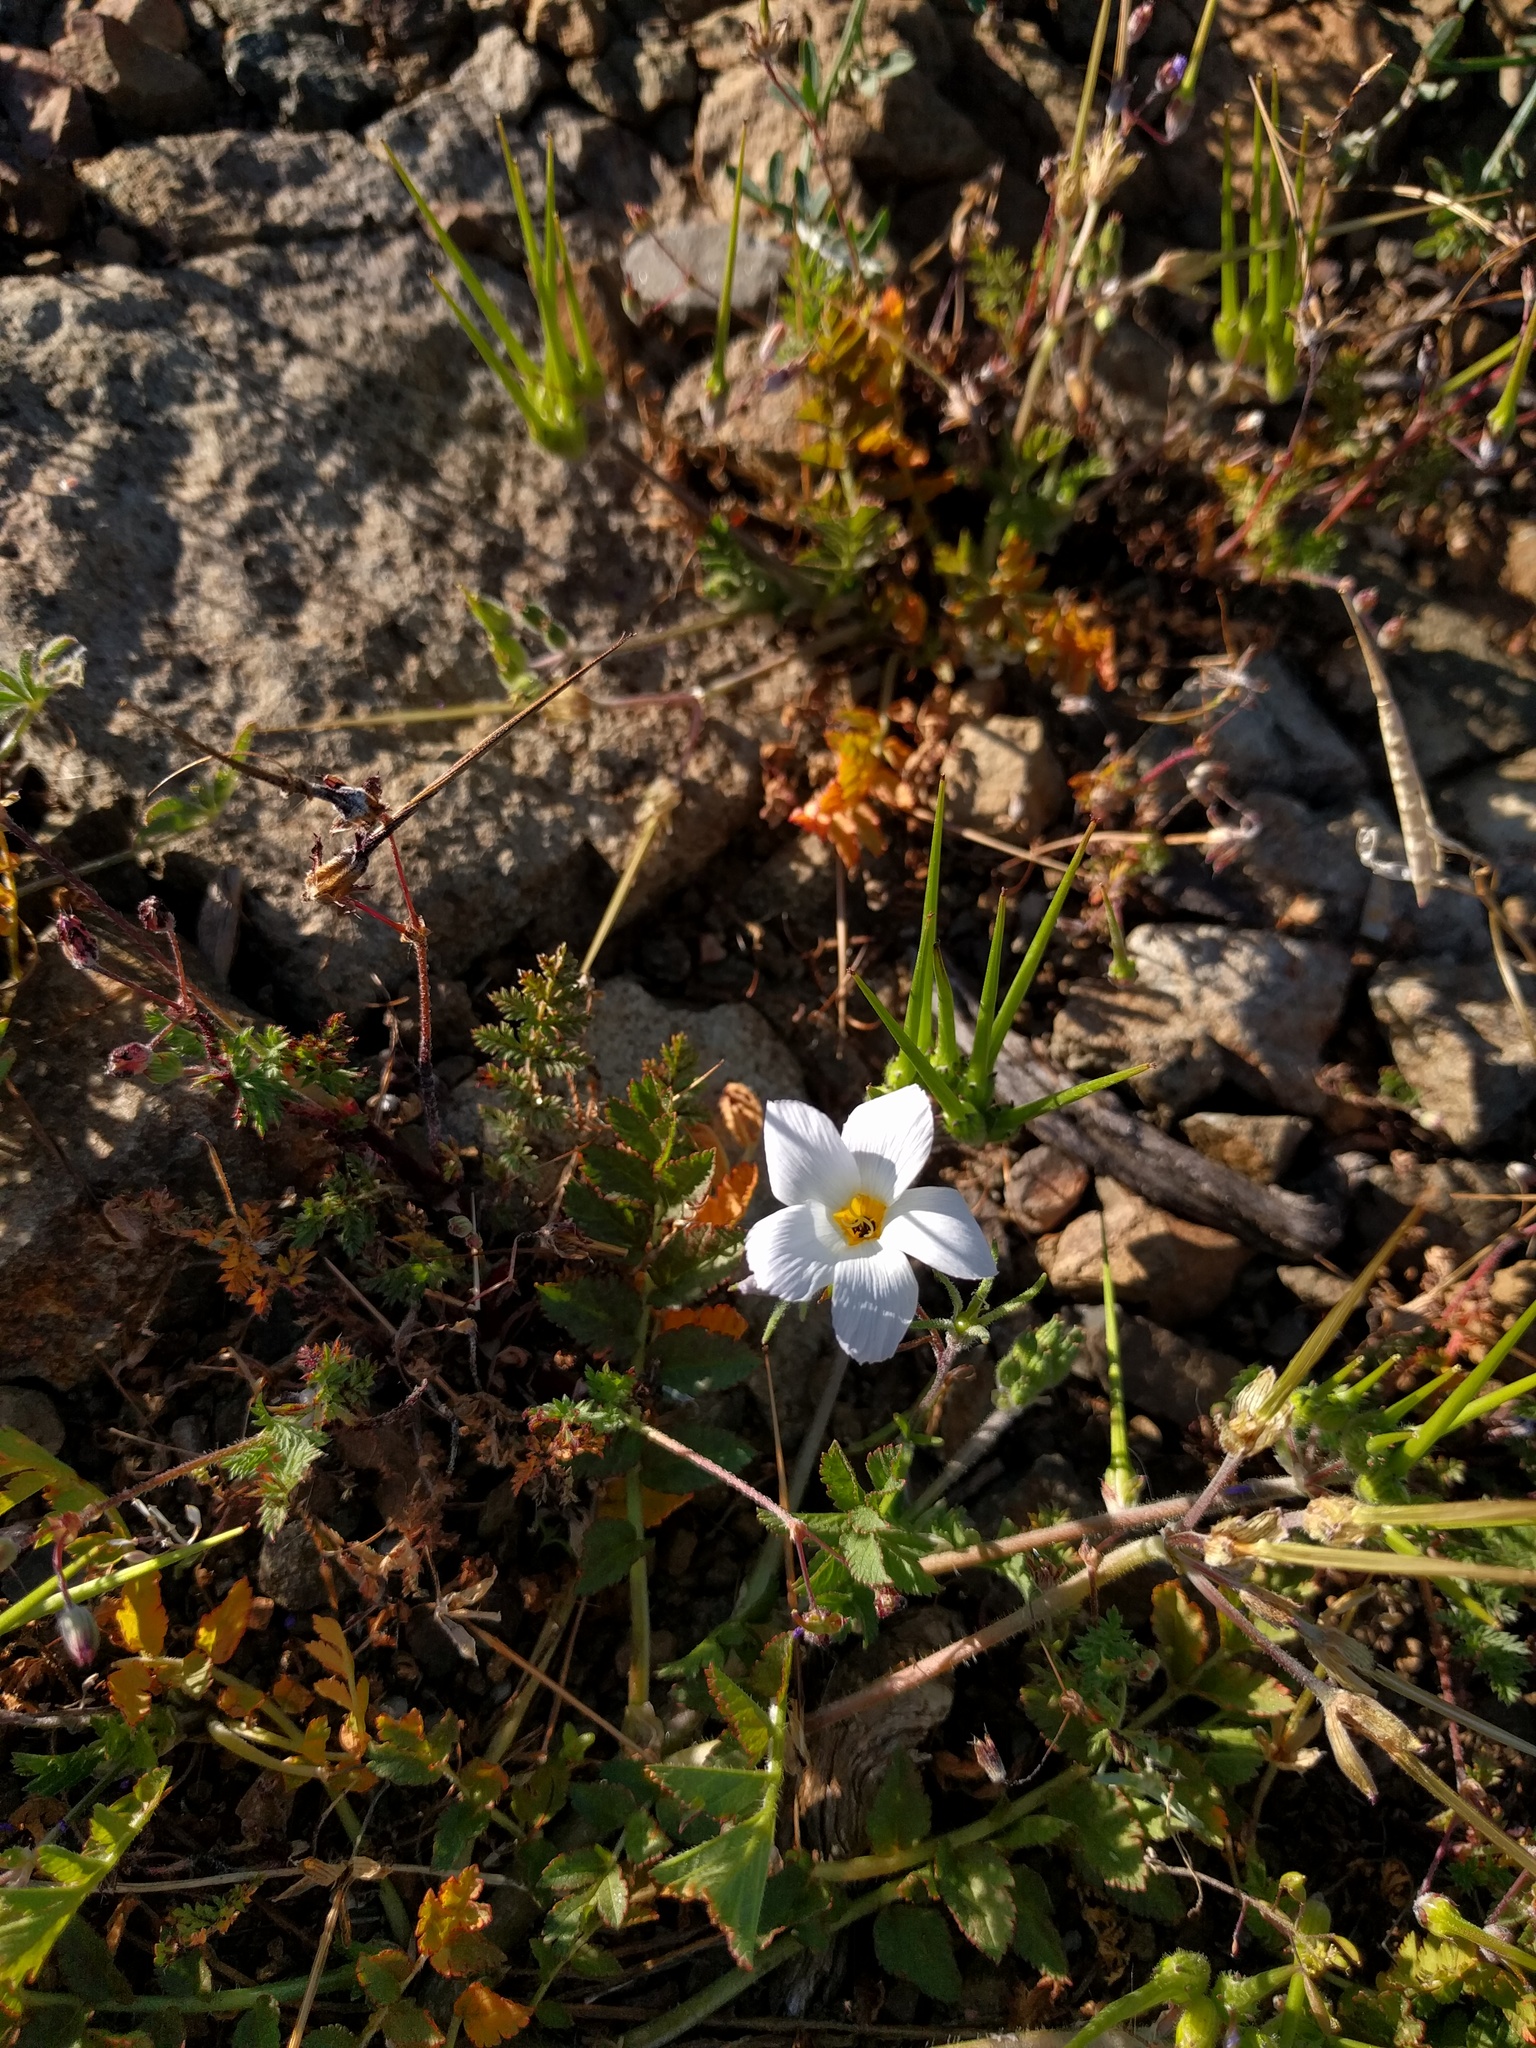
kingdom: Plantae
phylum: Tracheophyta
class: Magnoliopsida
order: Ericales
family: Polemoniaceae
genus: Linanthus
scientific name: Linanthus dianthiflorus
